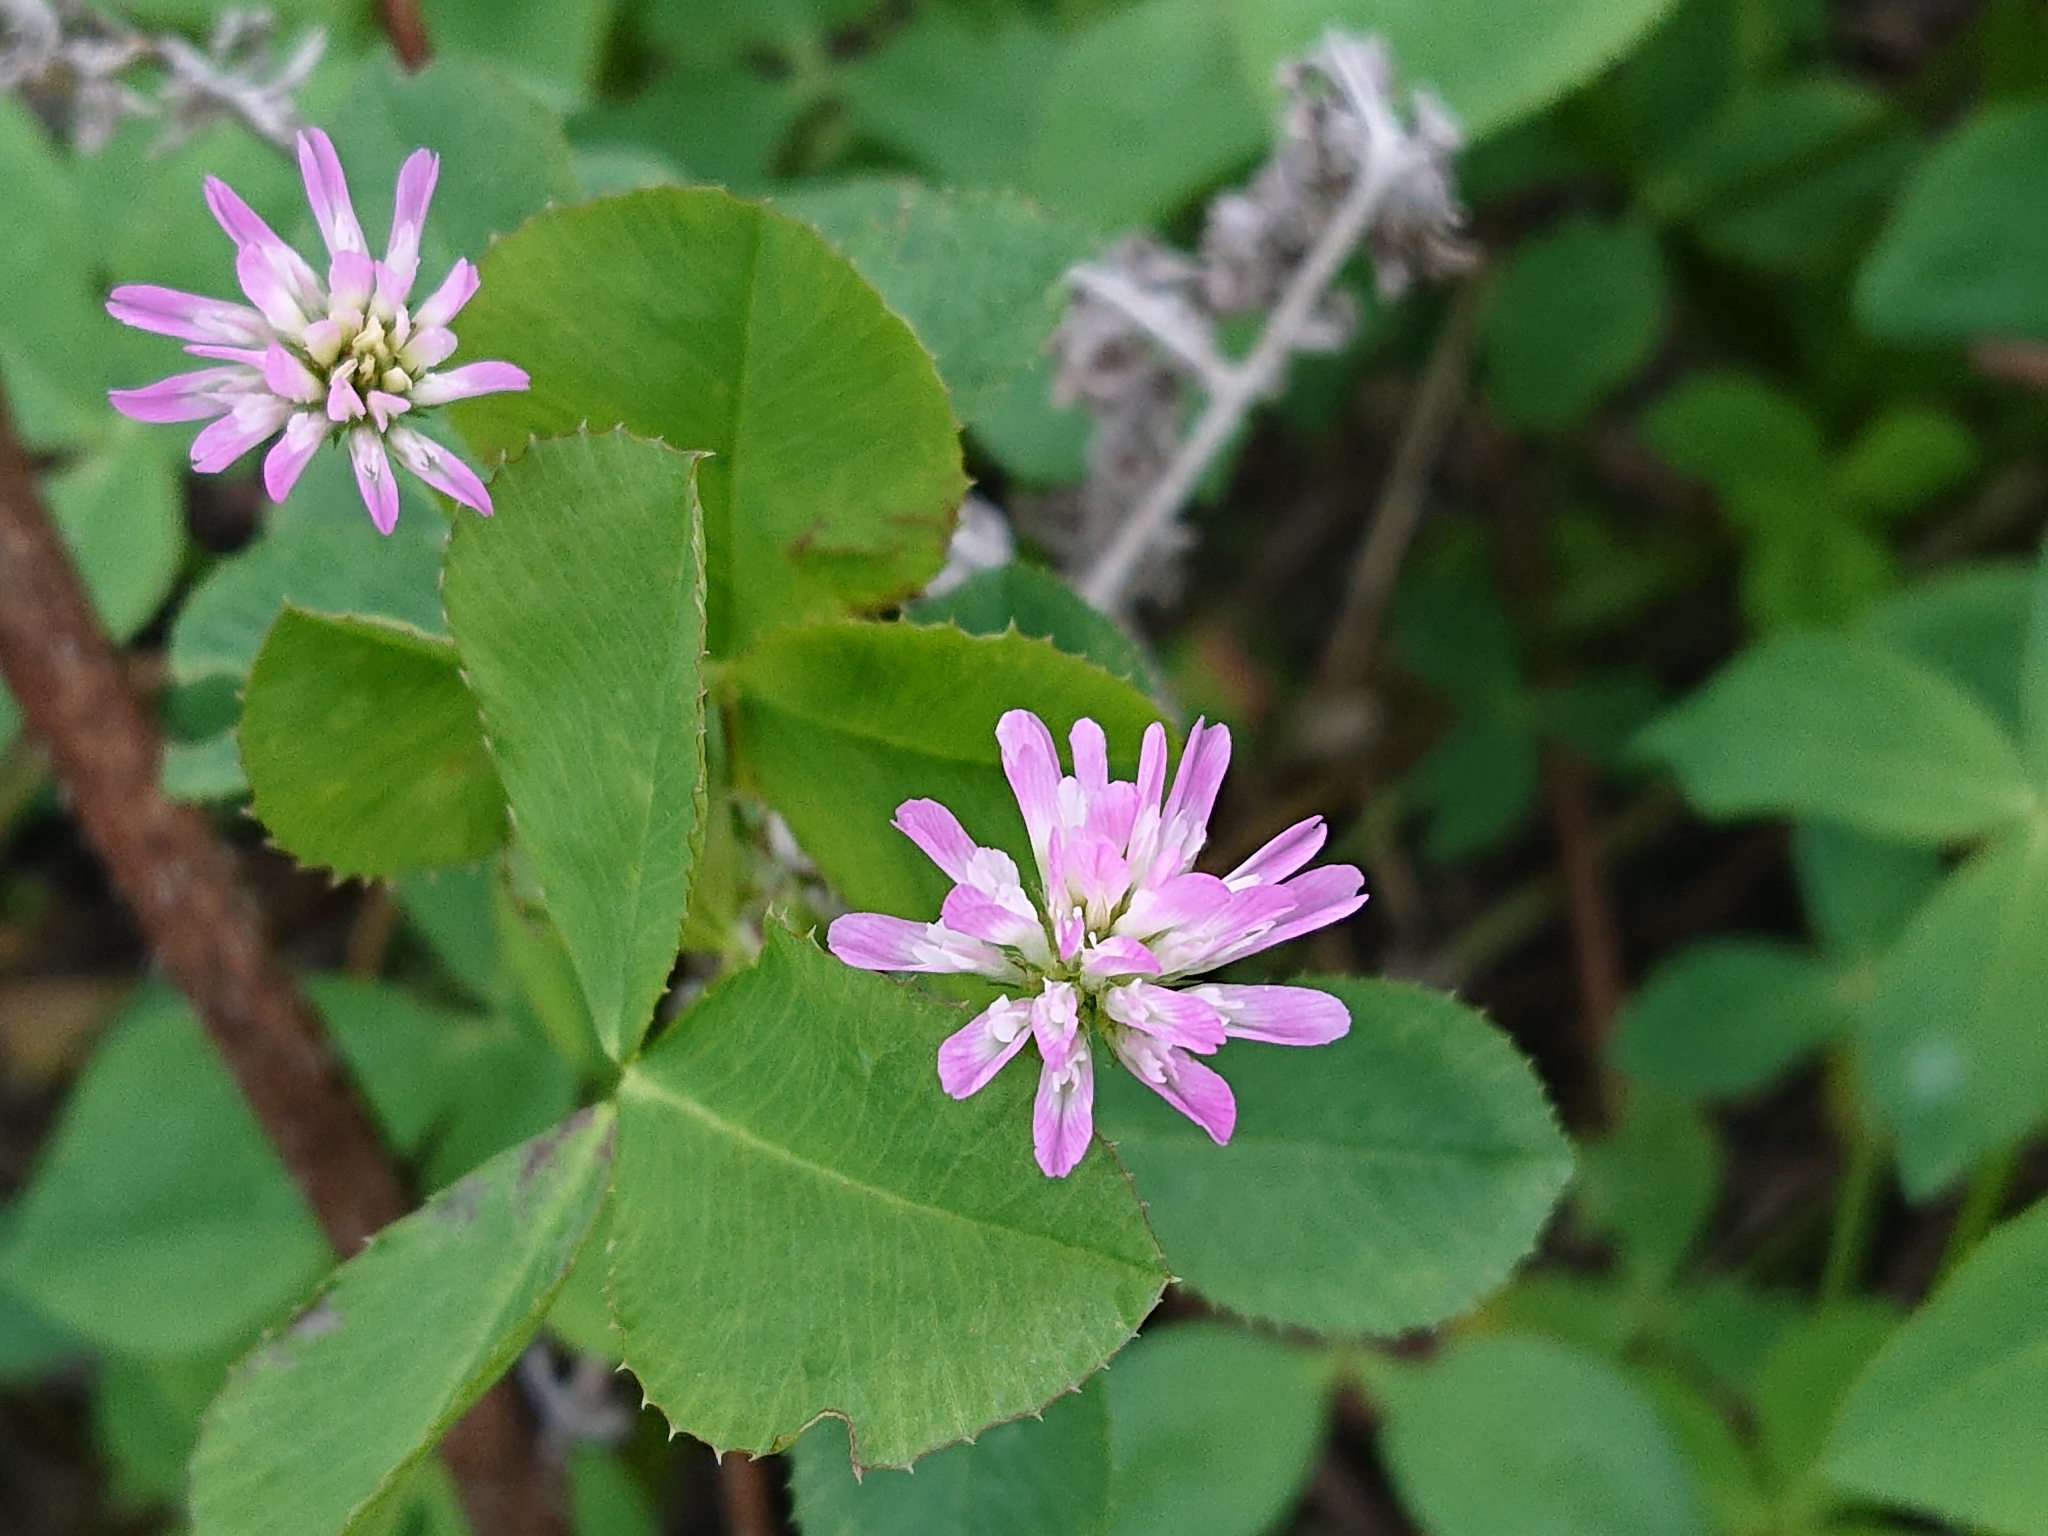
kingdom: Plantae
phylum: Tracheophyta
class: Magnoliopsida
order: Fabales
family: Fabaceae
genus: Trifolium
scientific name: Trifolium resupinatum
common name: Reversed clover
